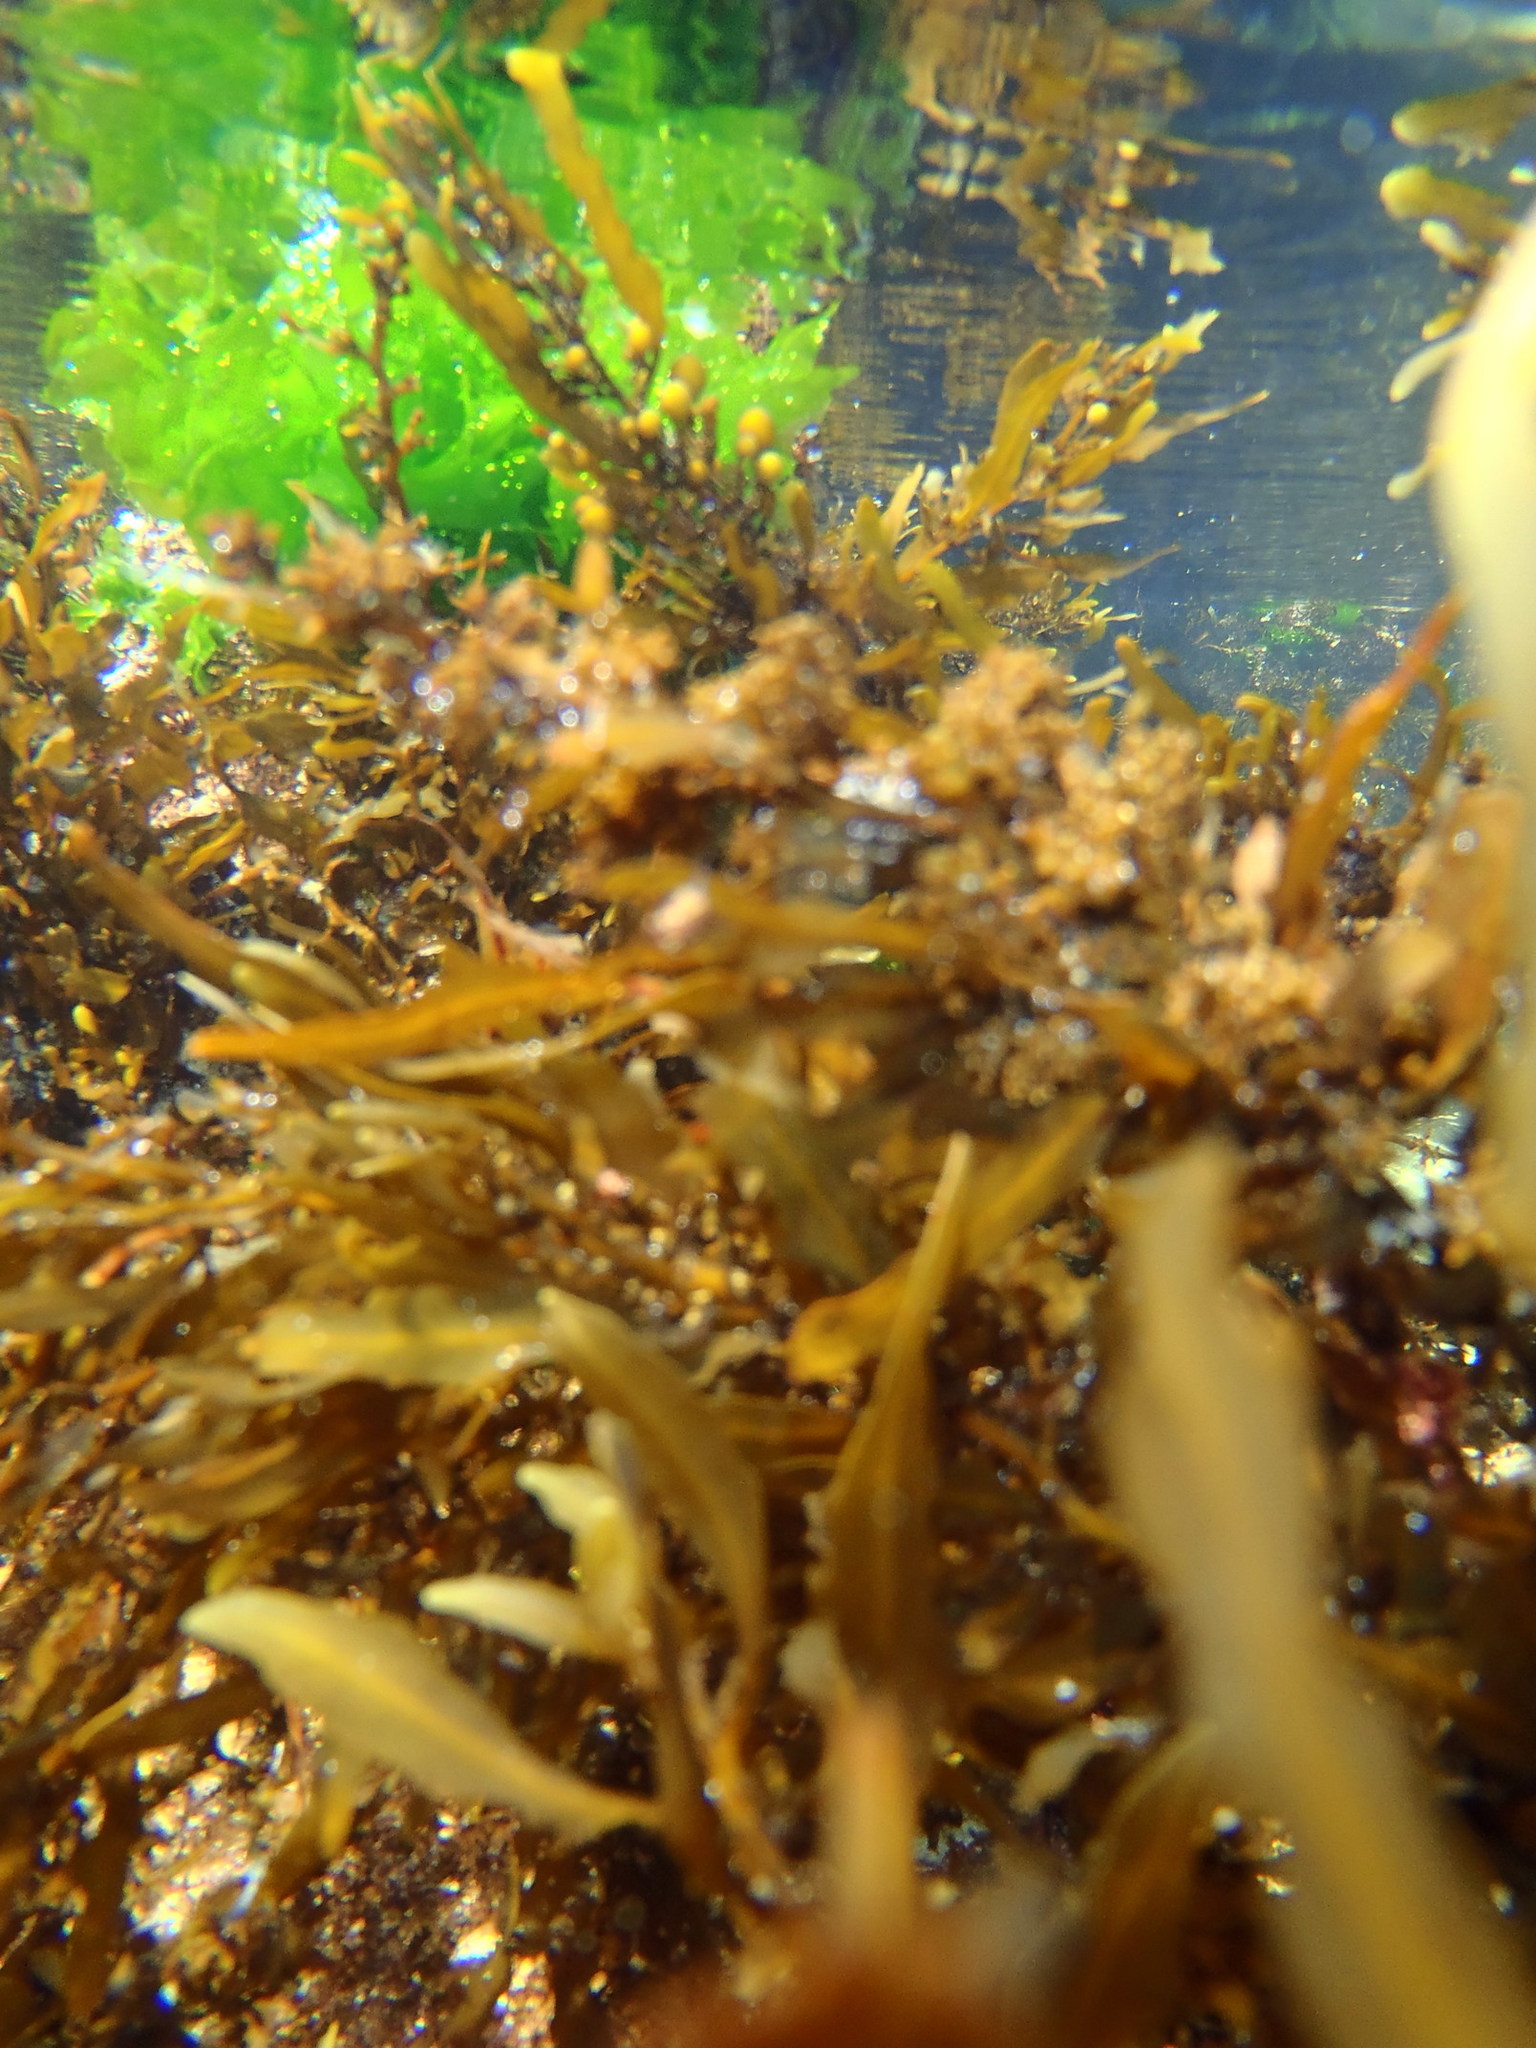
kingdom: Chromista
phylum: Ochrophyta
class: Phaeophyceae
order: Fucales
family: Sargassaceae
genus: Sargassum
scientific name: Sargassum incisifolium
